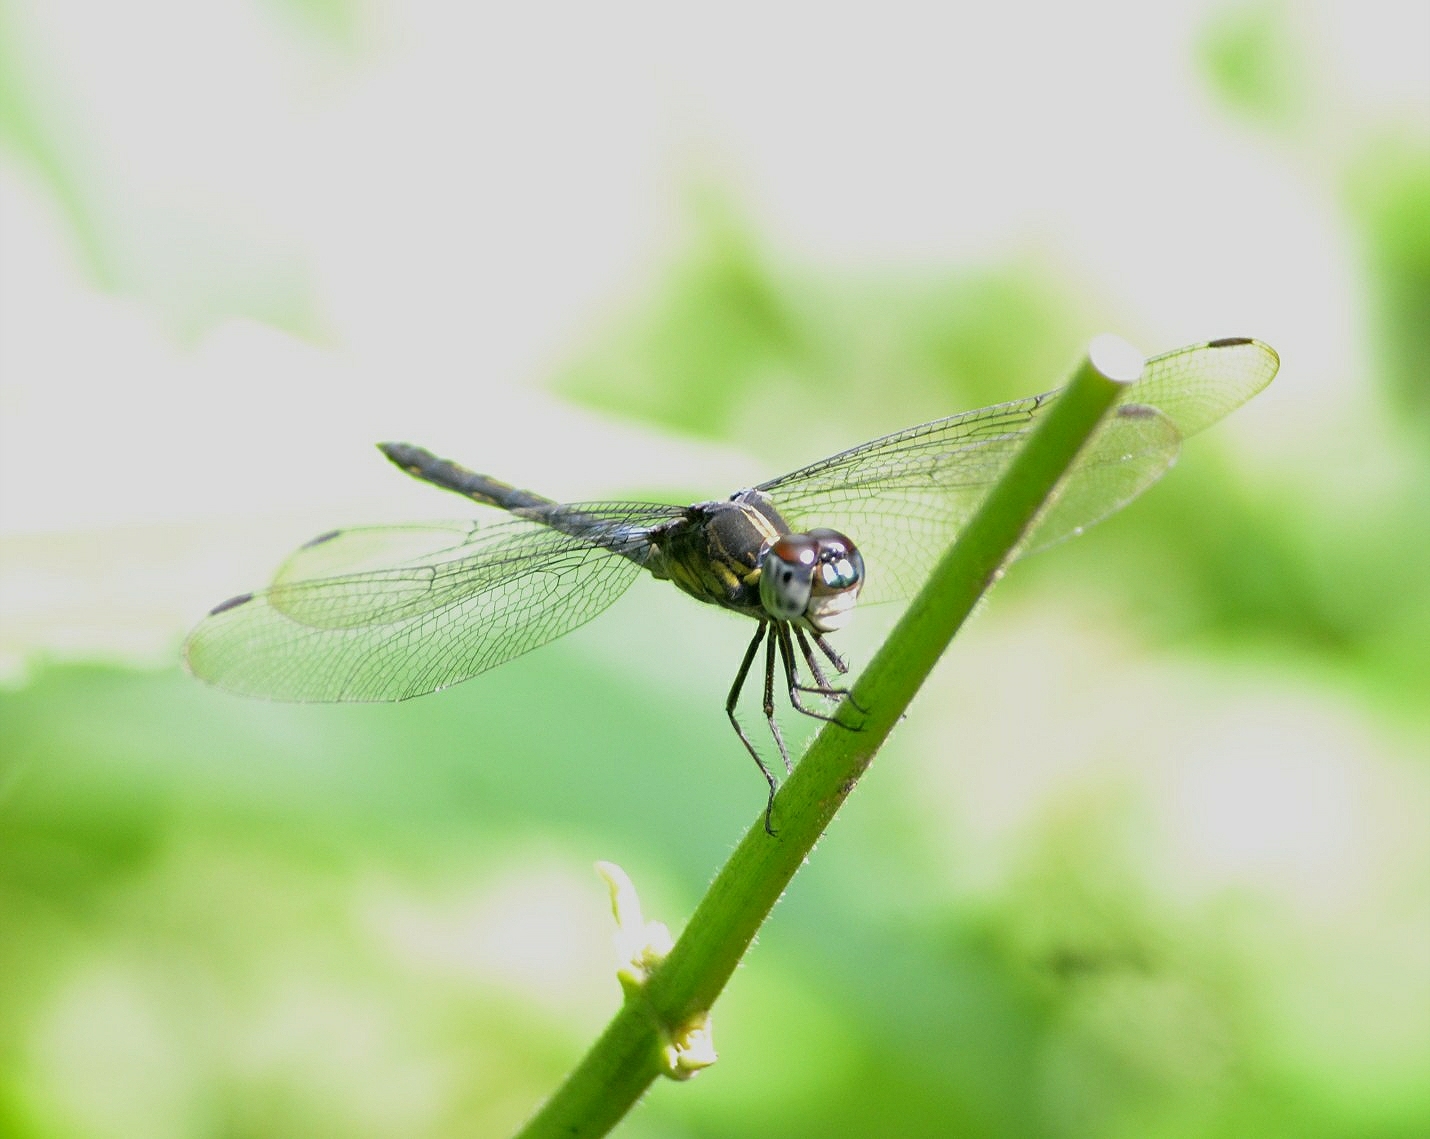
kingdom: Animalia
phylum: Arthropoda
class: Insecta
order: Odonata
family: Libellulidae
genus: Cratilla
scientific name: Cratilla lineata
